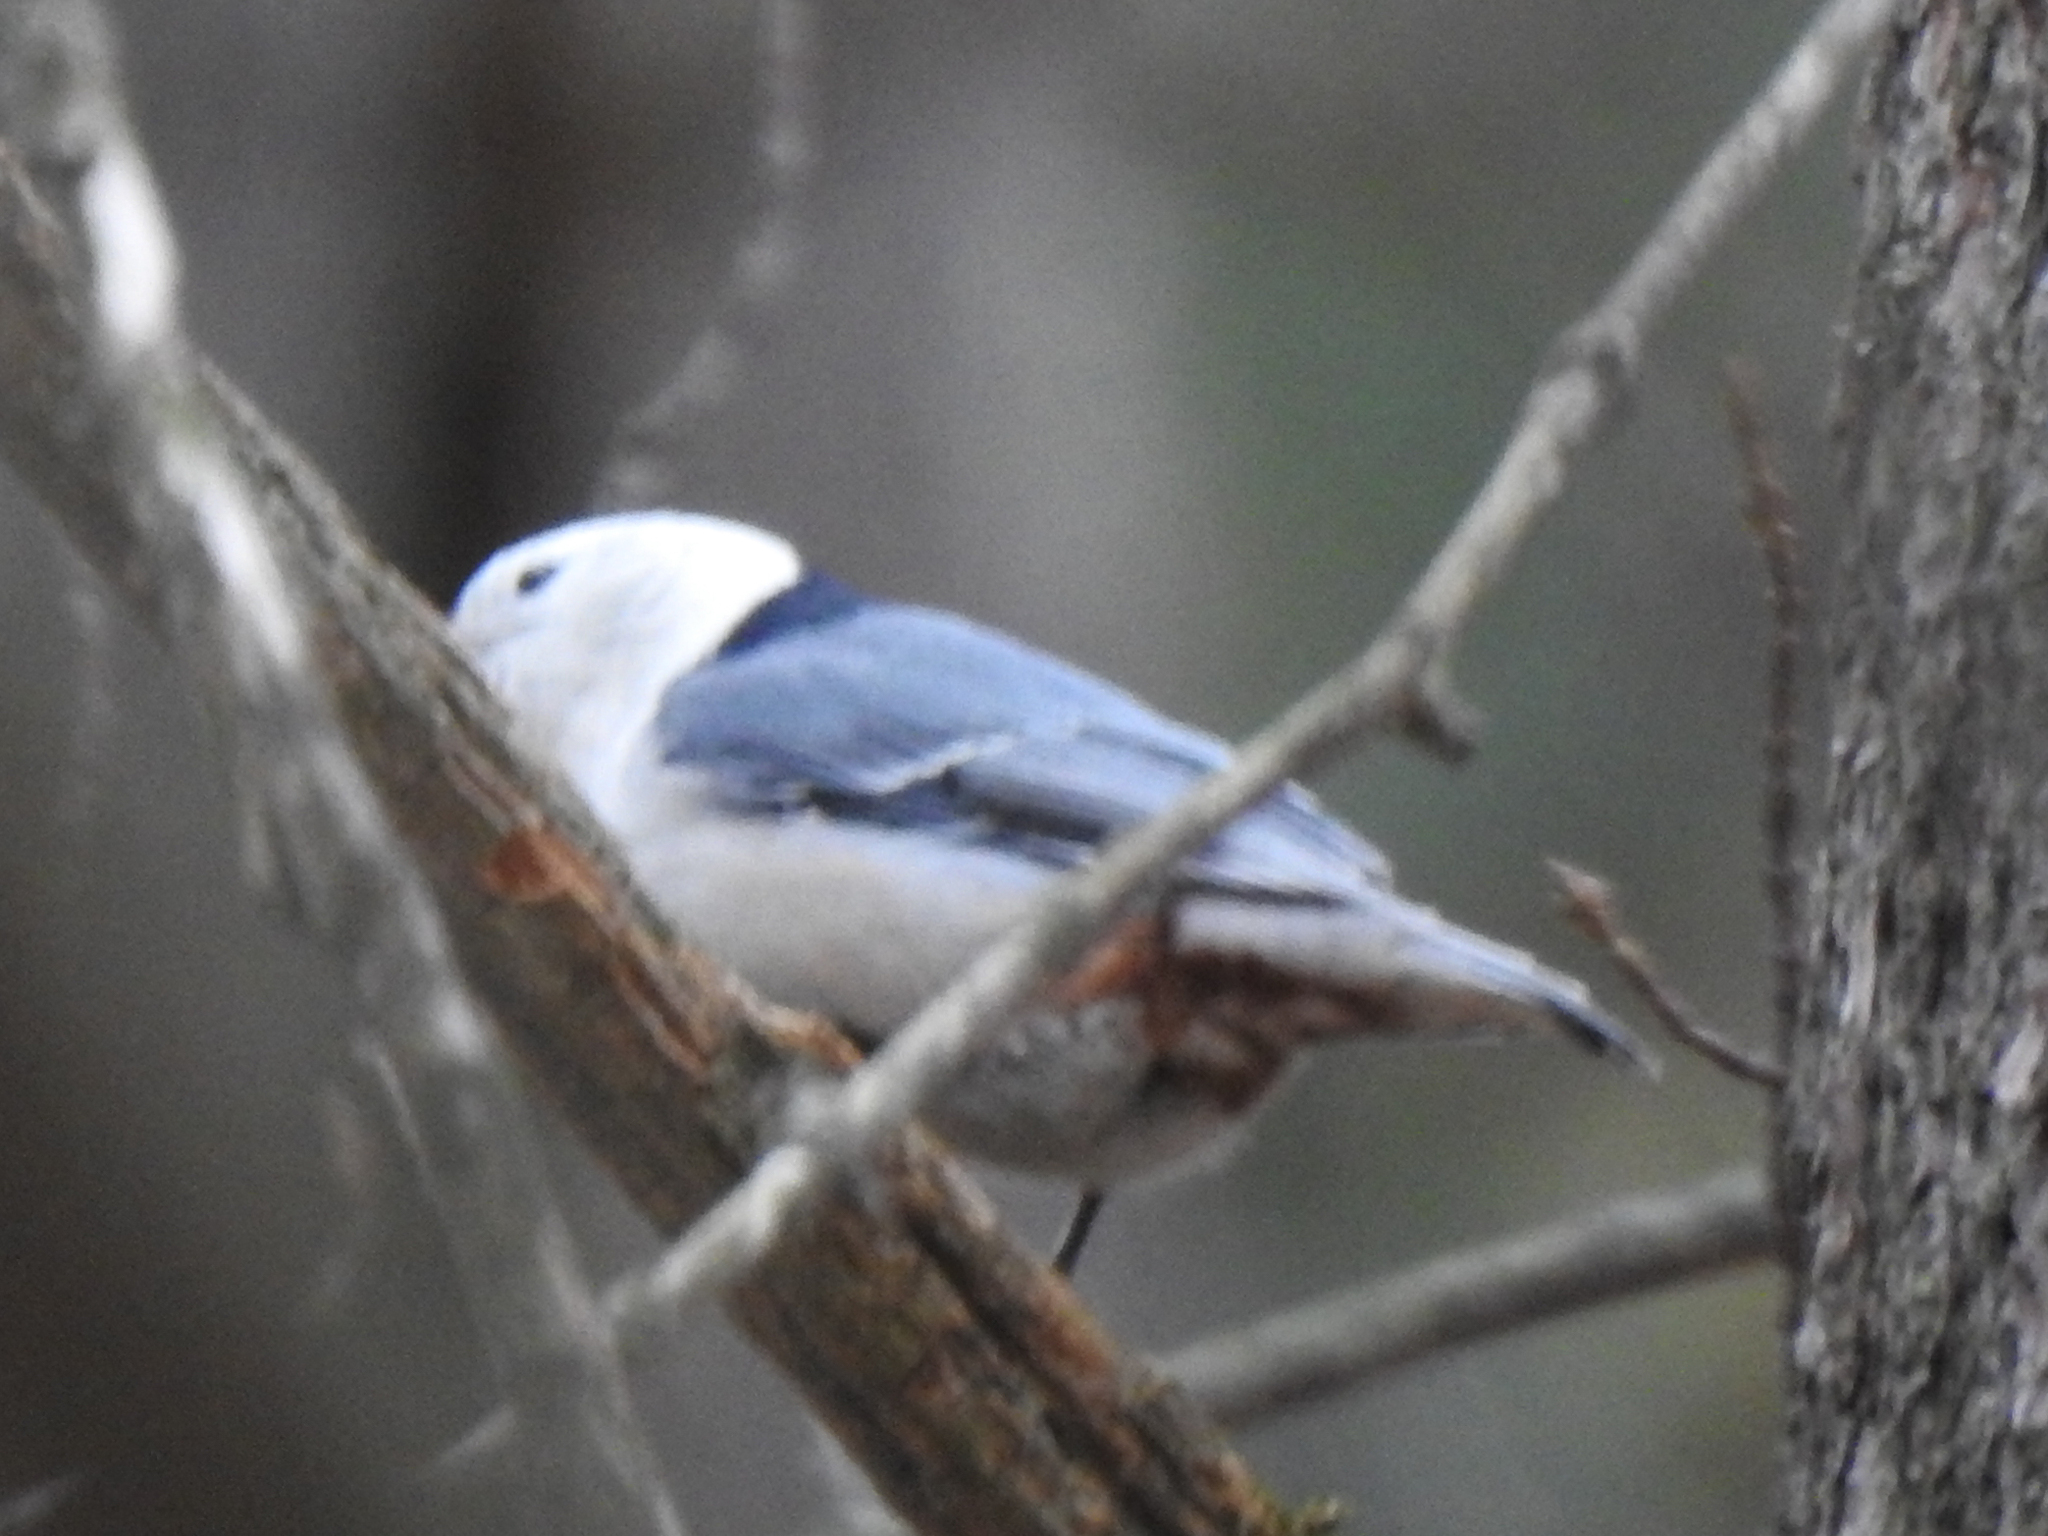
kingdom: Animalia
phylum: Chordata
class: Aves
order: Passeriformes
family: Sittidae
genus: Sitta
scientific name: Sitta carolinensis
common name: White-breasted nuthatch
